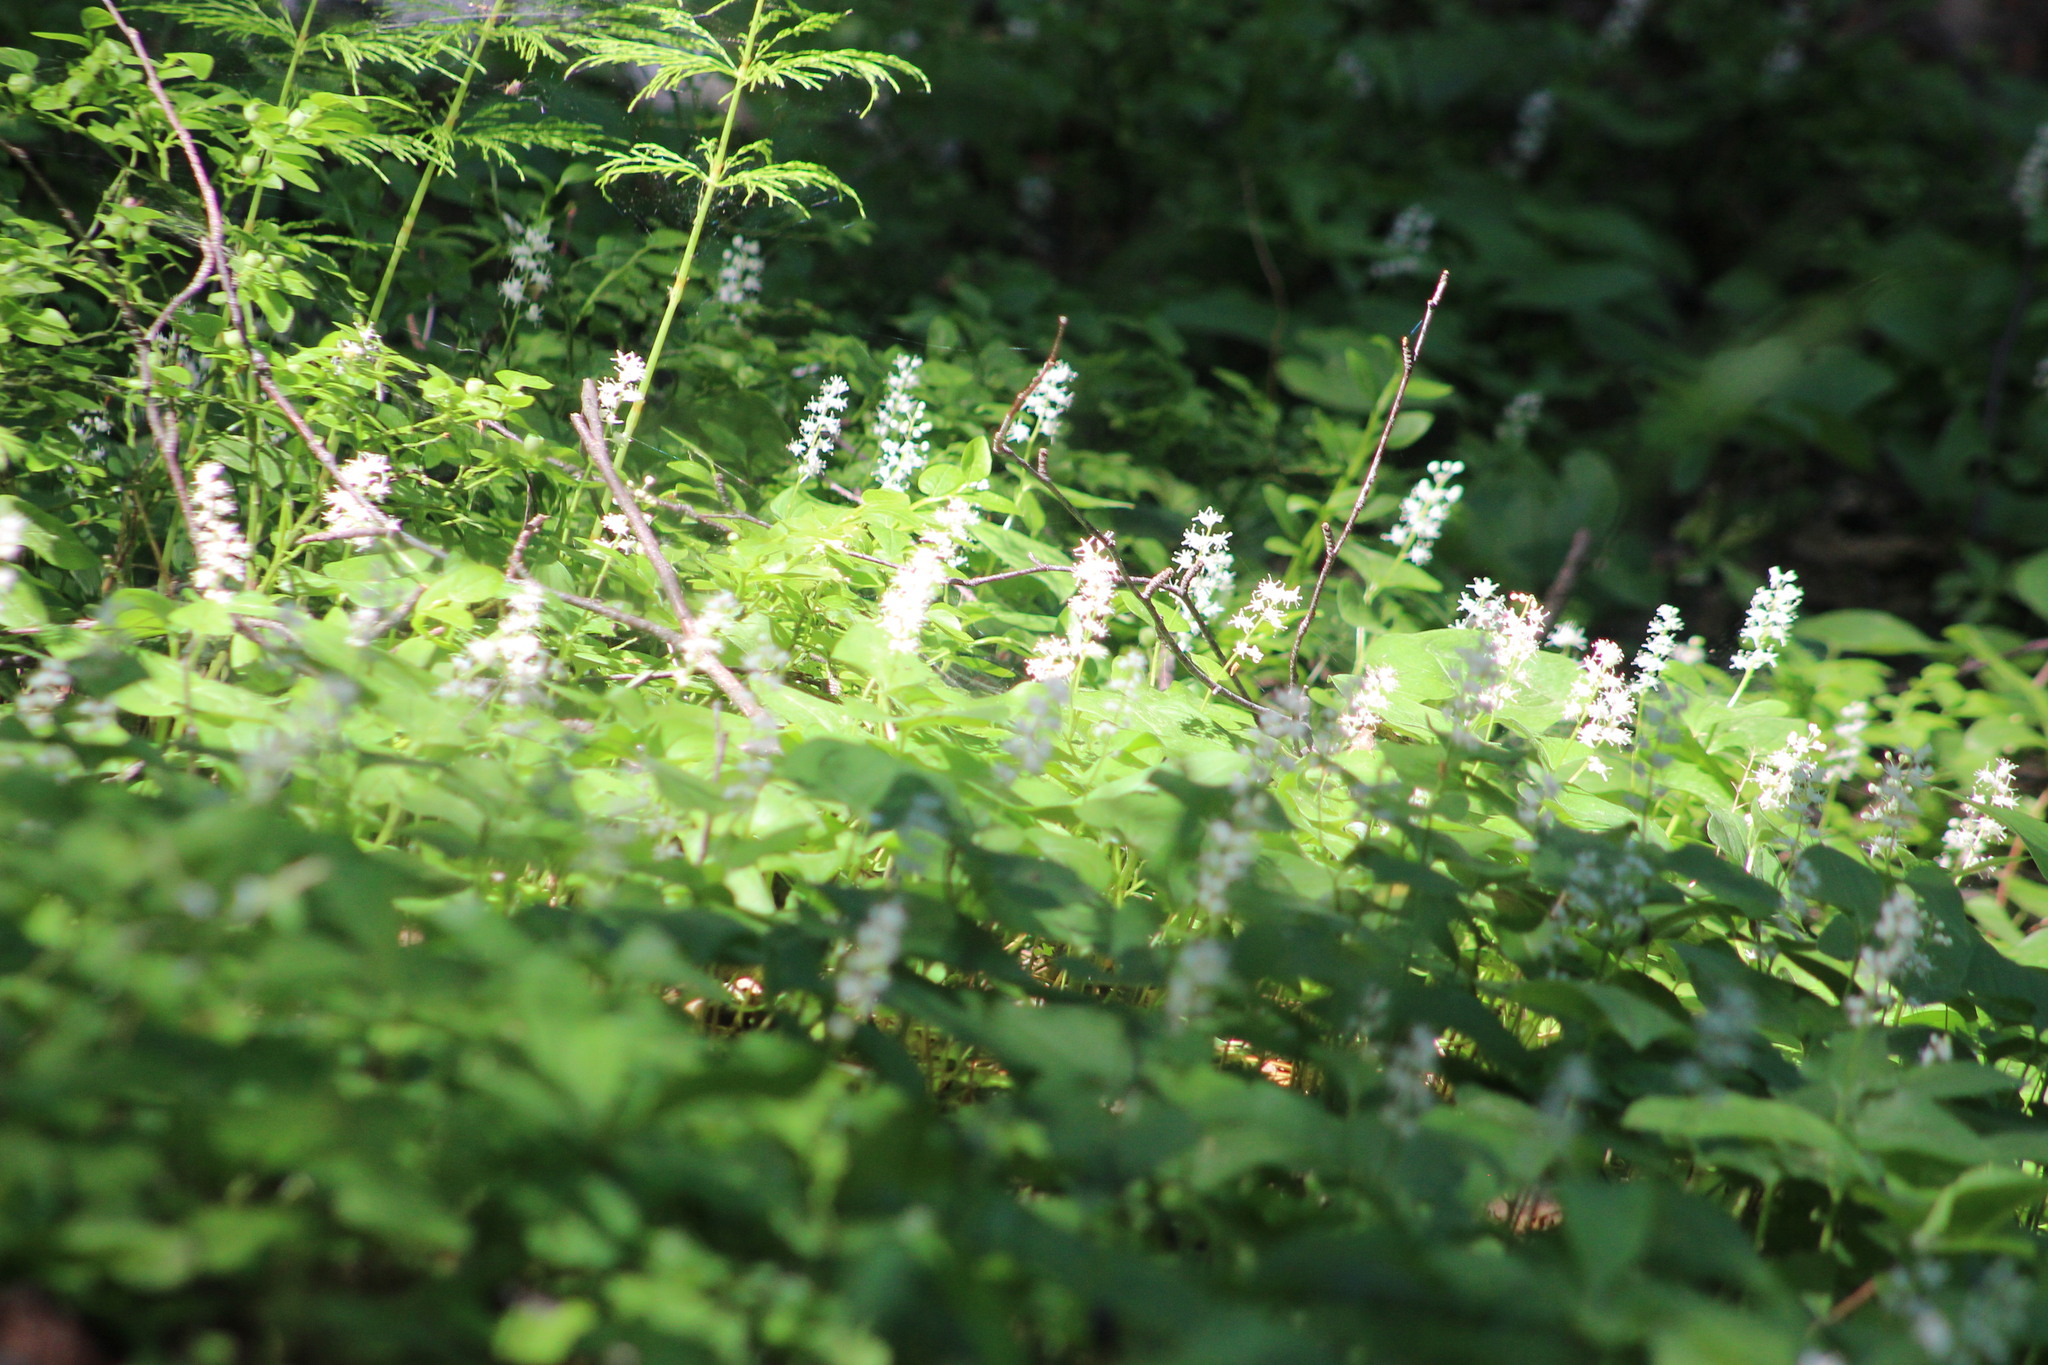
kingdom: Plantae
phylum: Tracheophyta
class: Liliopsida
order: Asparagales
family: Asparagaceae
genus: Maianthemum
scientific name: Maianthemum bifolium
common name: May lily
